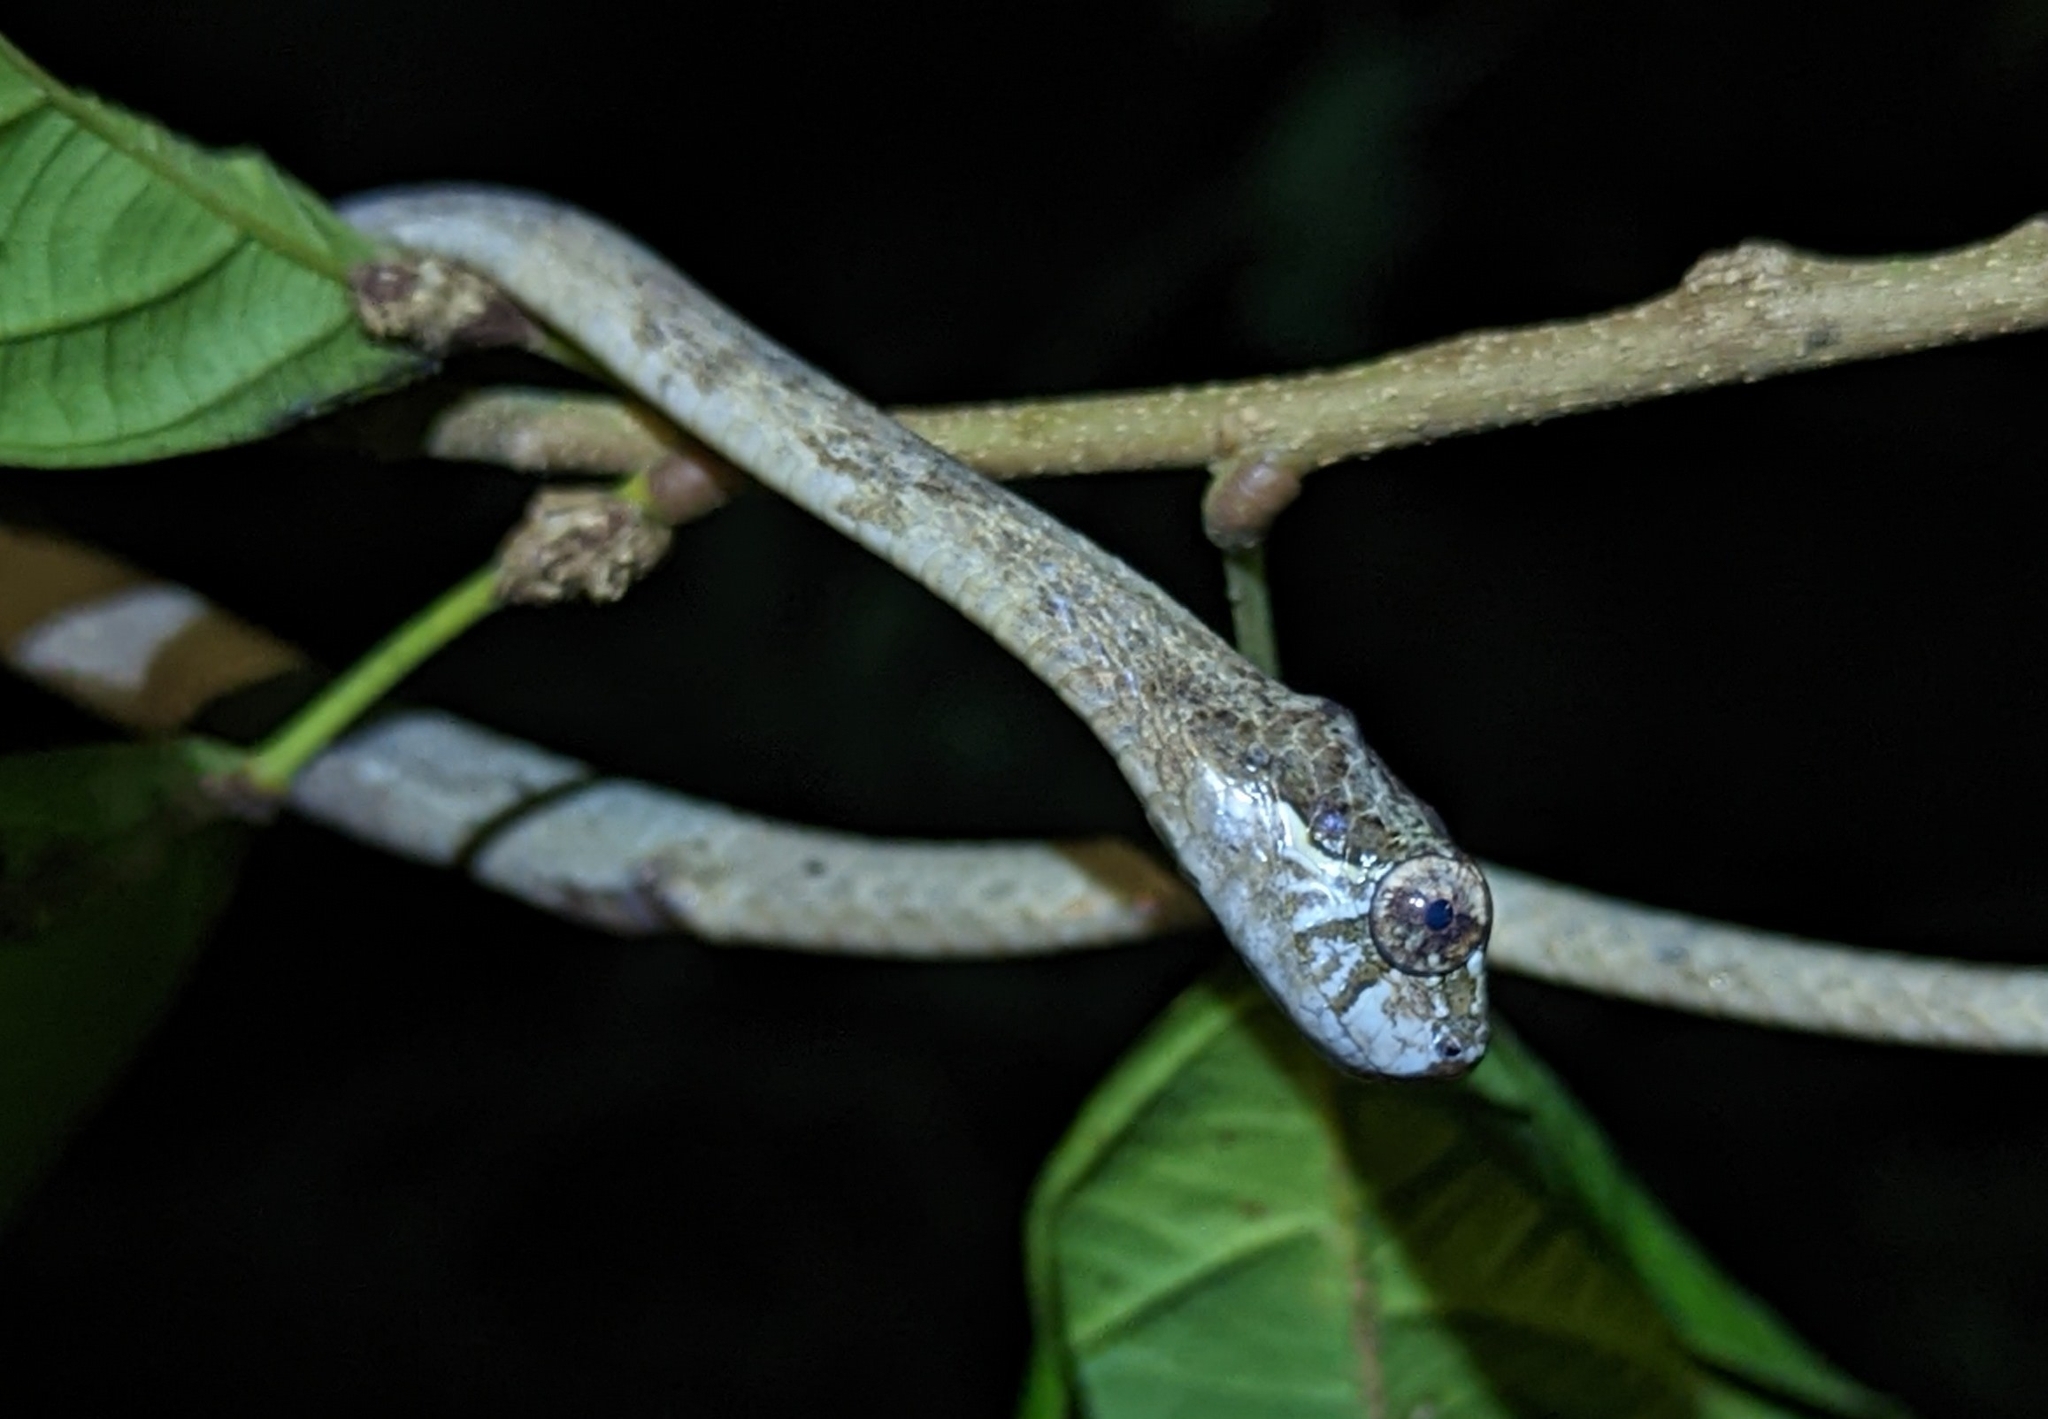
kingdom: Animalia
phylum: Chordata
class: Squamata
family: Pareidae
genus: Aplopeltura
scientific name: Aplopeltura boa
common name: Blunthead slug snake
